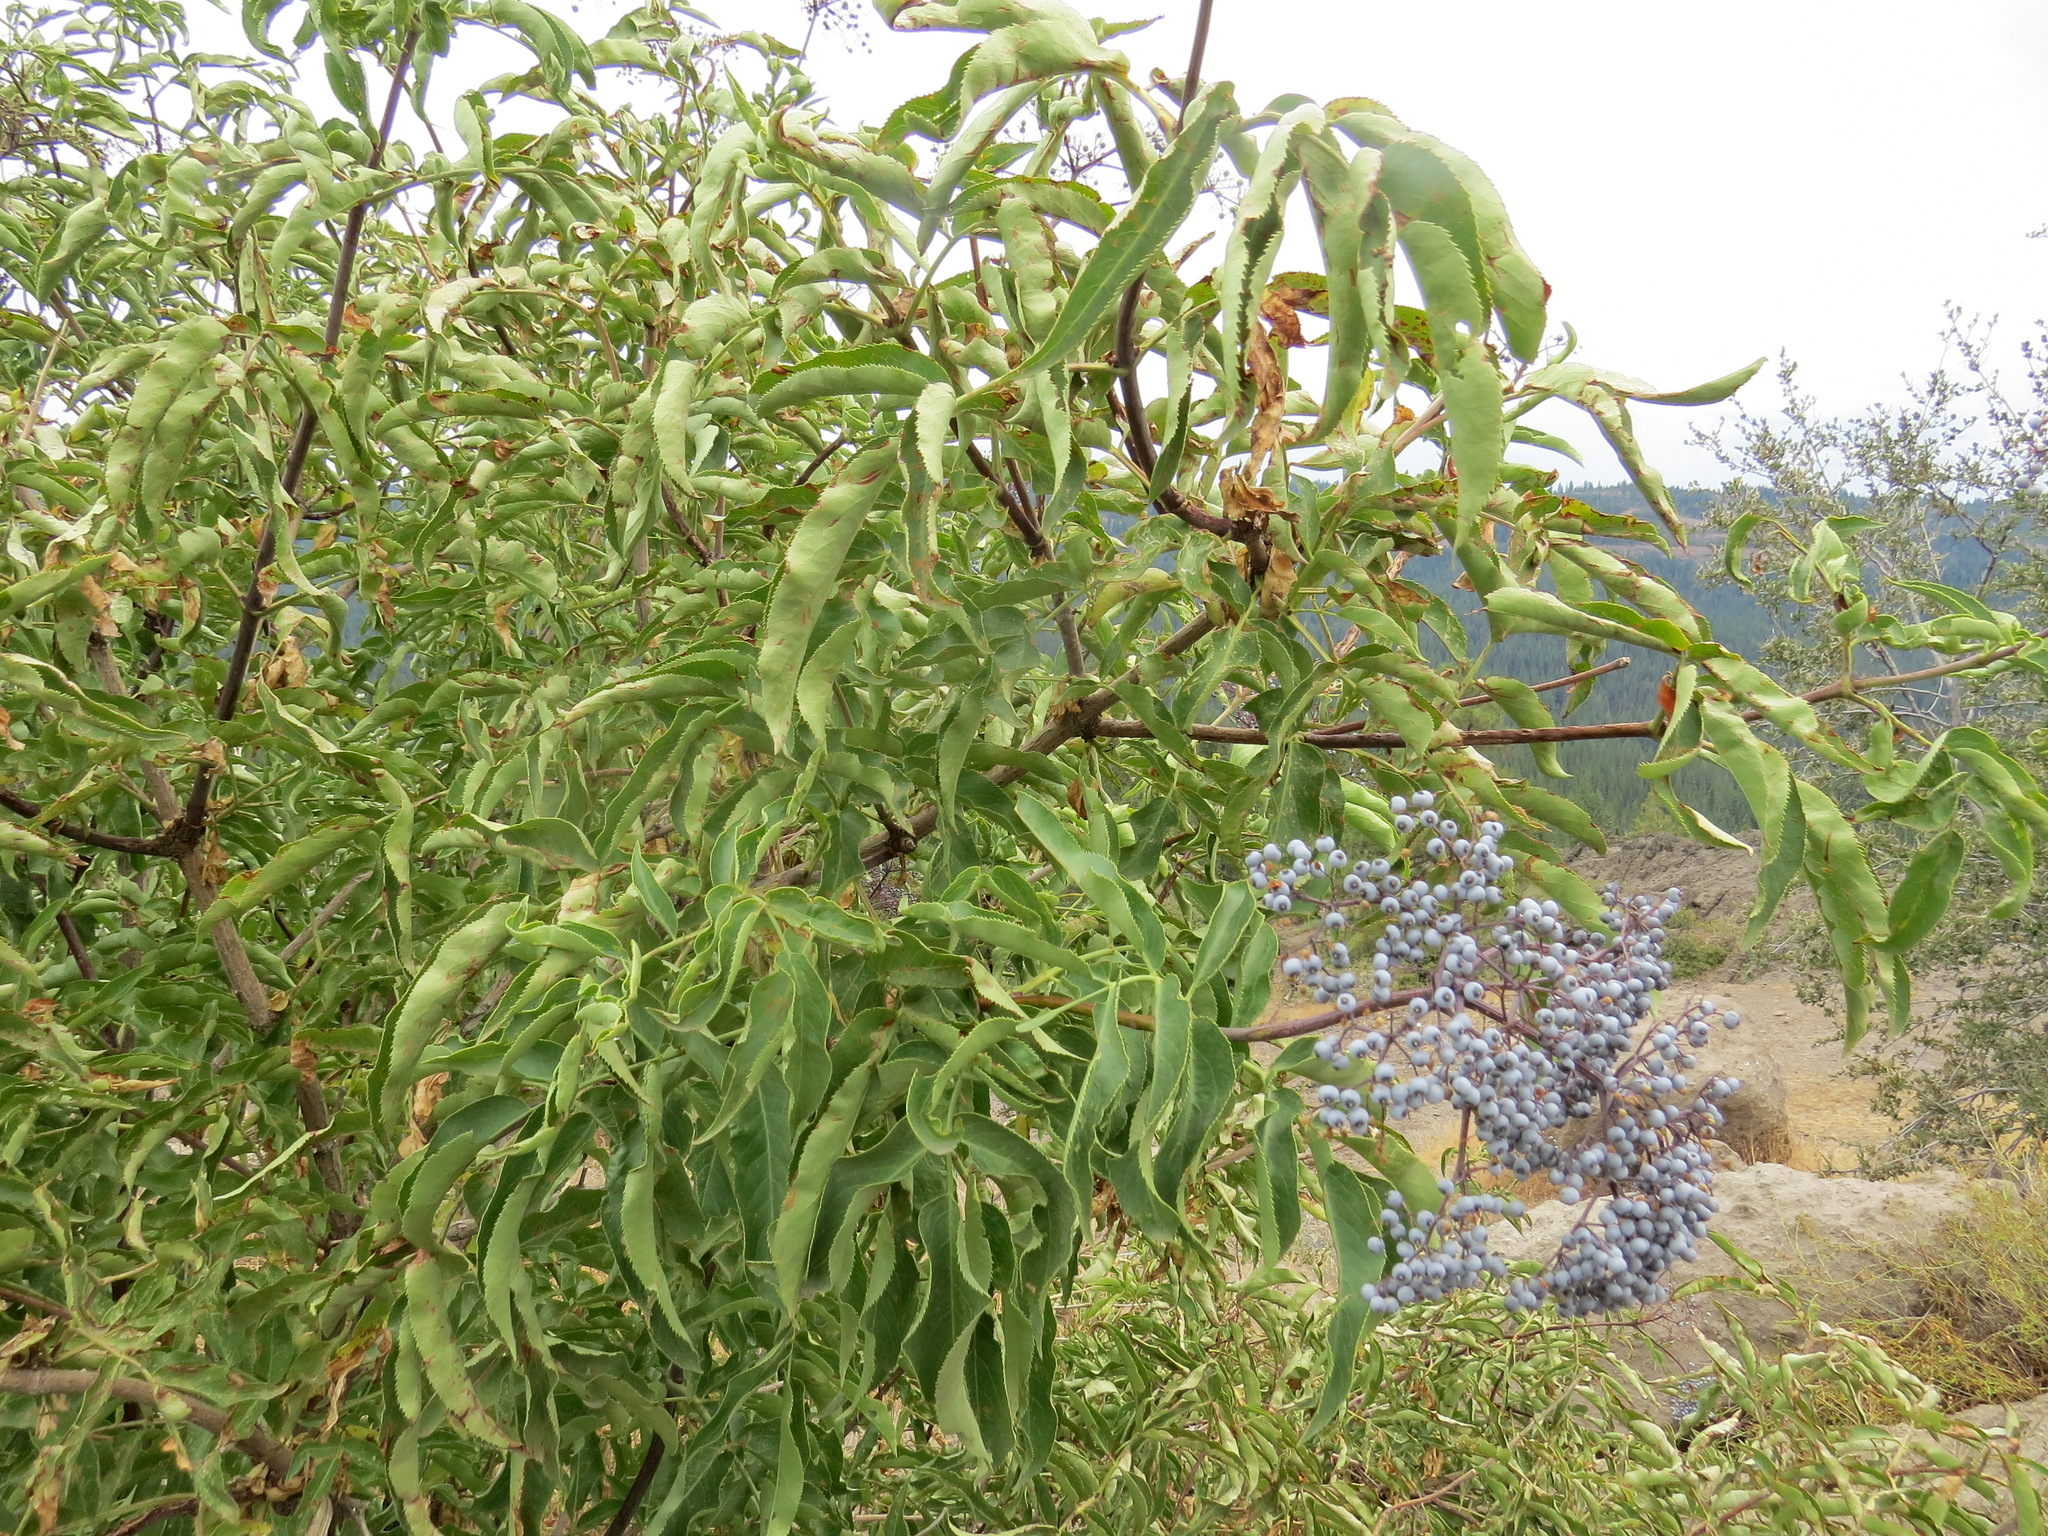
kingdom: Plantae
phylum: Tracheophyta
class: Magnoliopsida
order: Dipsacales
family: Viburnaceae
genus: Sambucus
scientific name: Sambucus cerulea
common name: Blue elder
